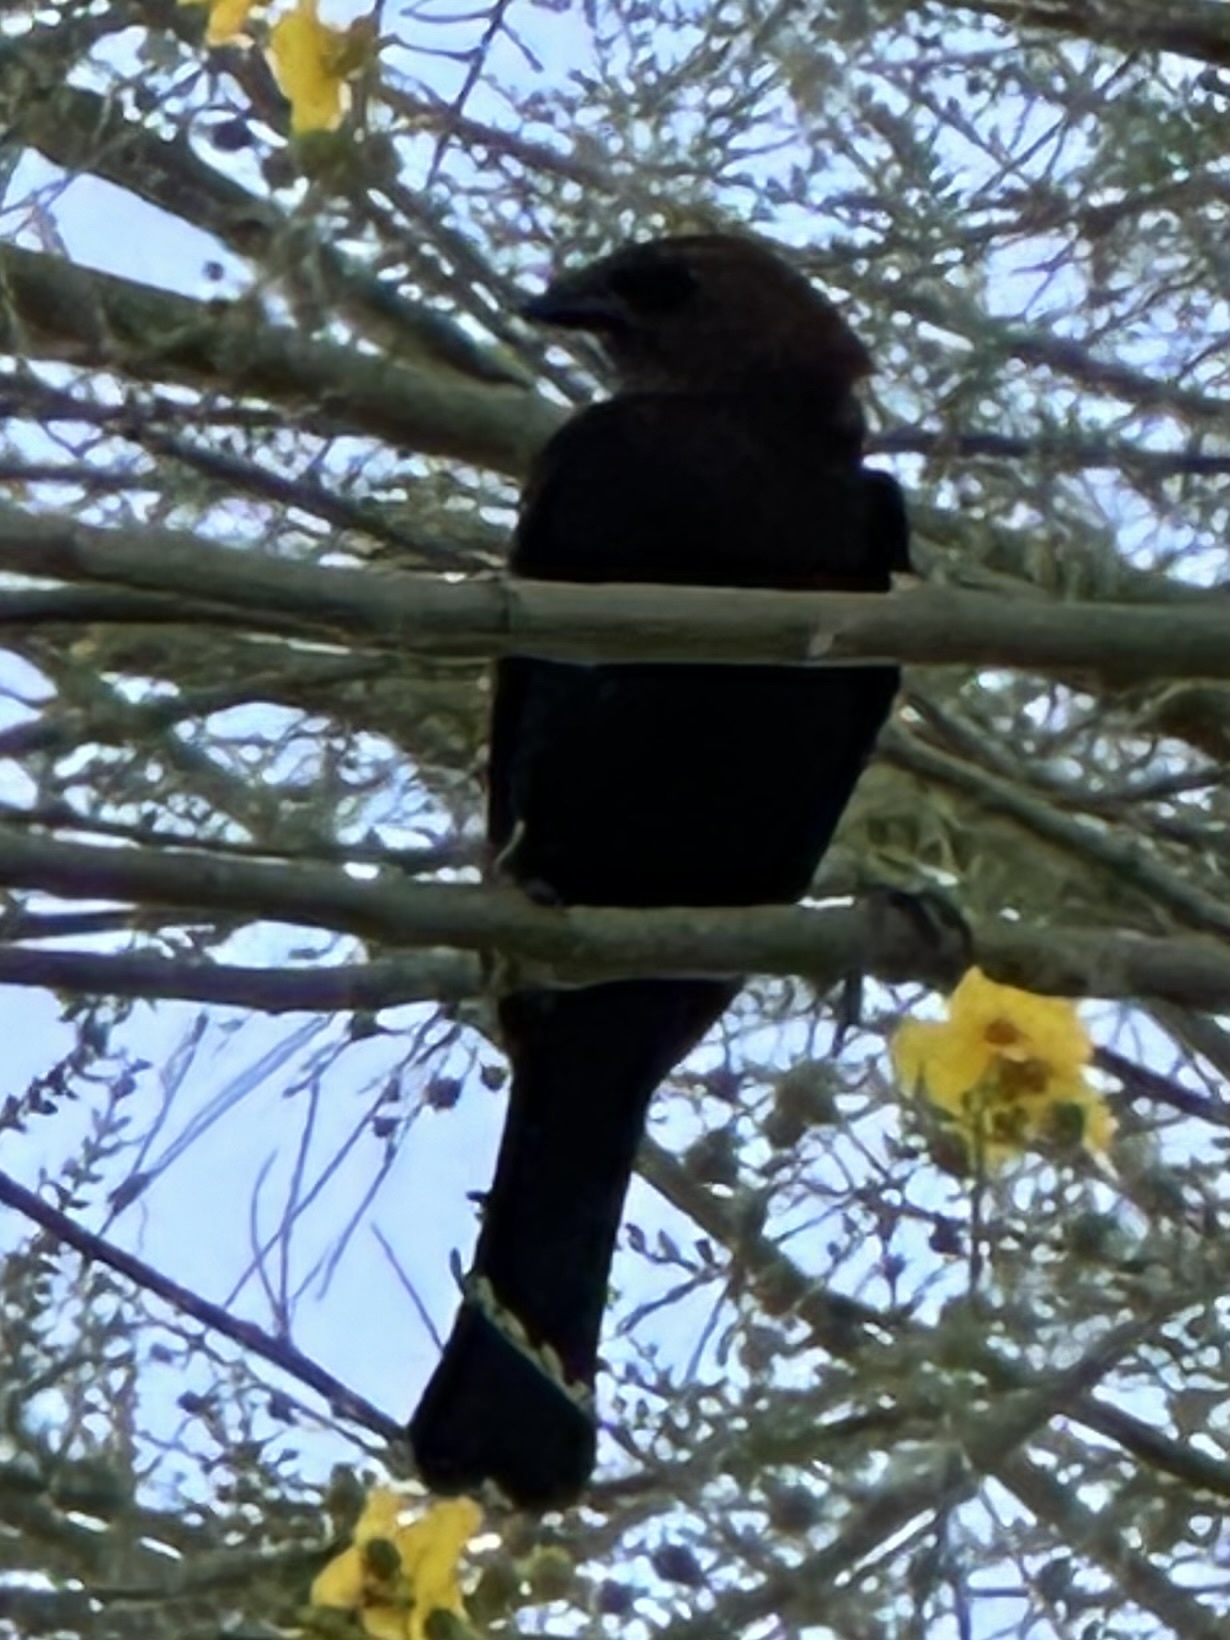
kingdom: Animalia
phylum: Chordata
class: Aves
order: Passeriformes
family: Icteridae
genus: Molothrus
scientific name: Molothrus ater
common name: Brown-headed cowbird
